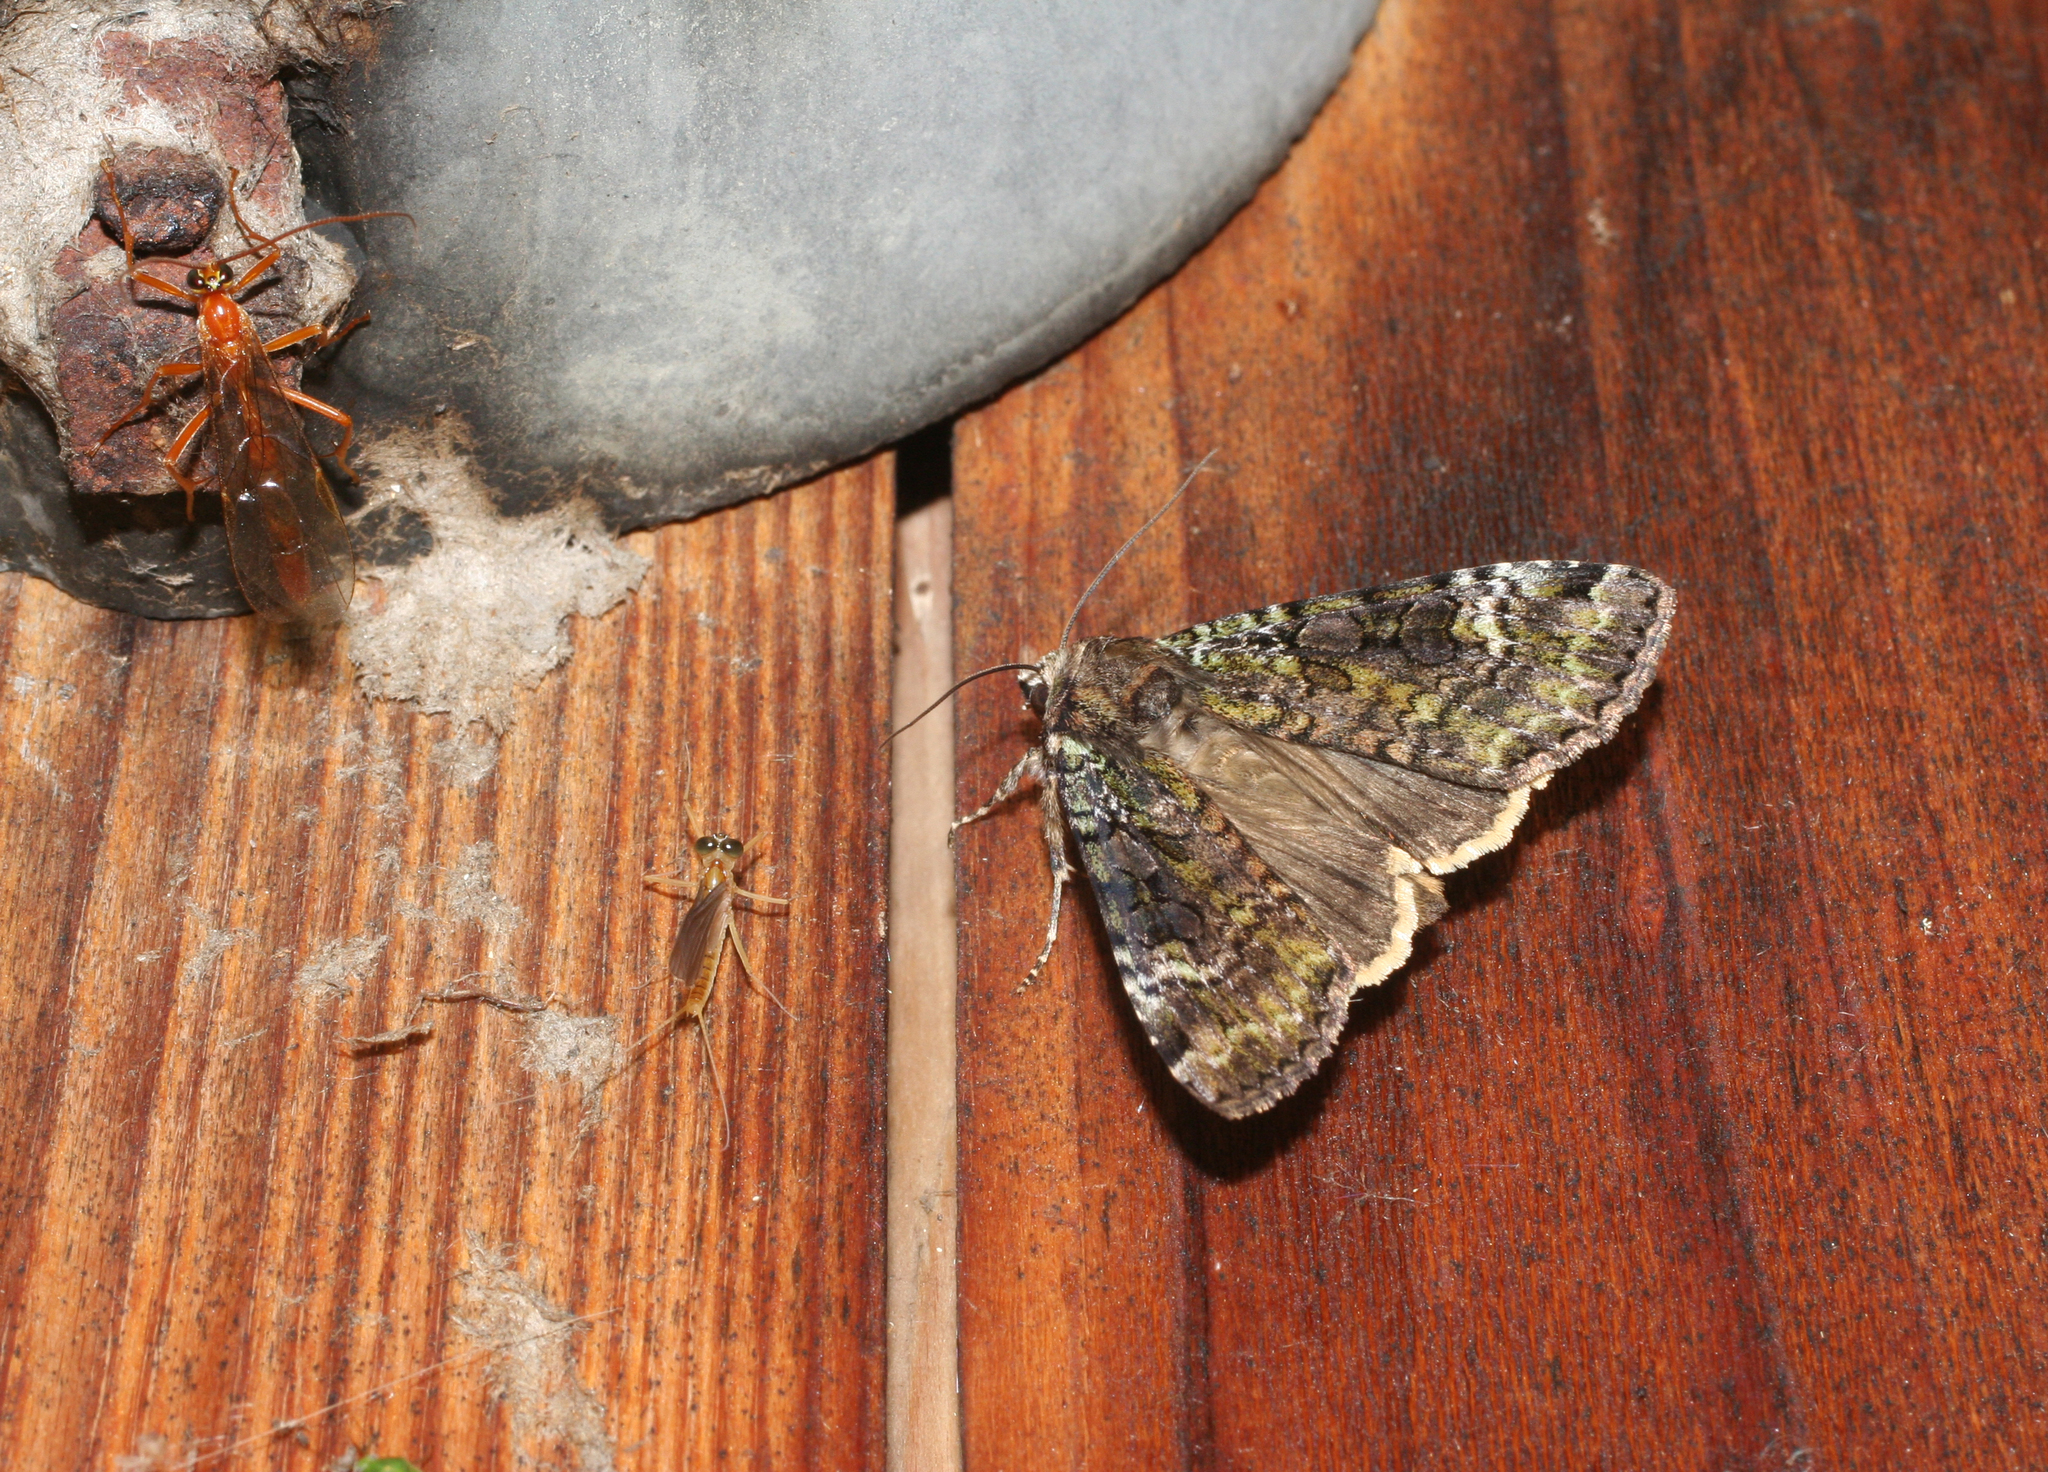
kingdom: Animalia
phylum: Arthropoda
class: Insecta
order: Lepidoptera
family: Noctuidae
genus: Anaplectoides
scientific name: Anaplectoides prasina
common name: Green arches
